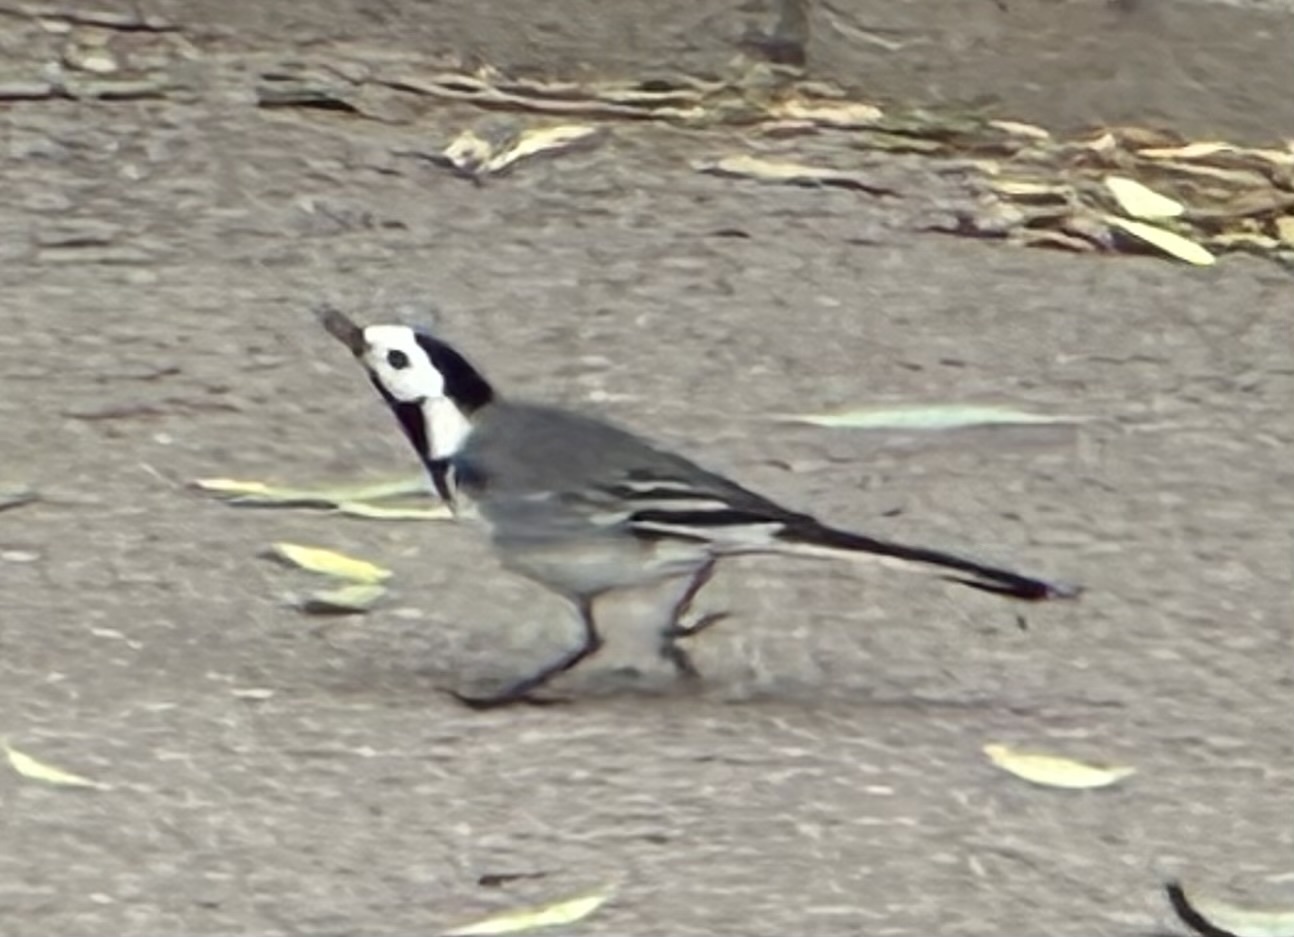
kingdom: Animalia
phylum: Chordata
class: Aves
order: Passeriformes
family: Motacillidae
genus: Motacilla
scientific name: Motacilla alba
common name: White wagtail
